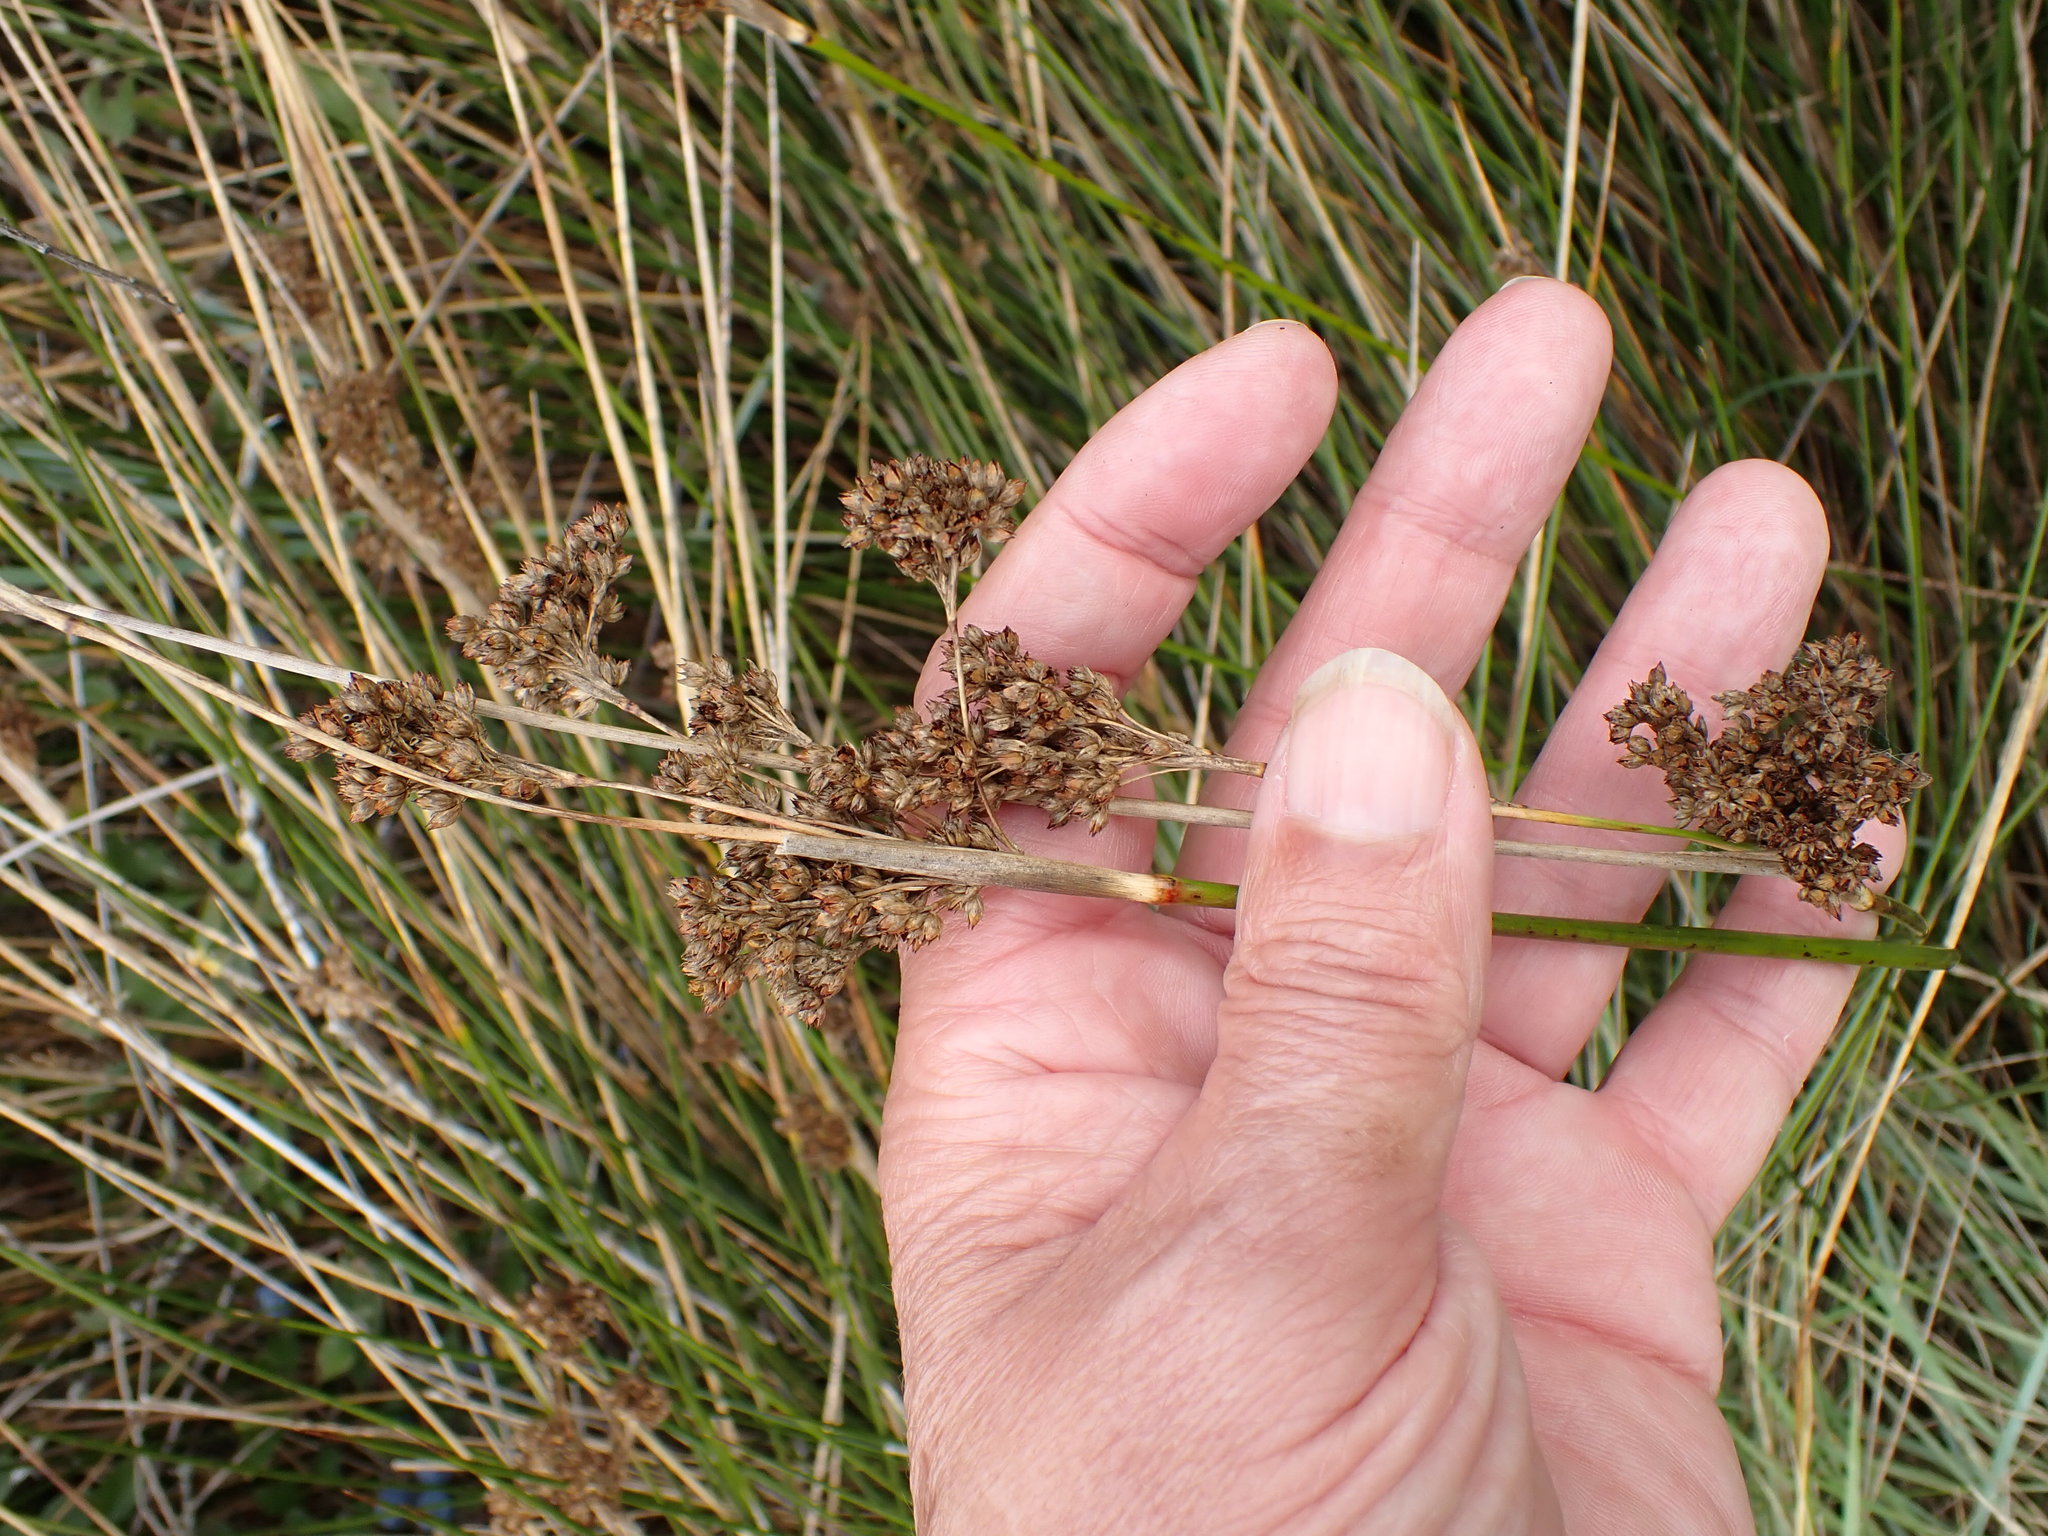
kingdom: Plantae
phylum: Tracheophyta
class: Liliopsida
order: Poales
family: Juncaceae
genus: Juncus
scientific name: Juncus maritimus
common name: Sea rush
